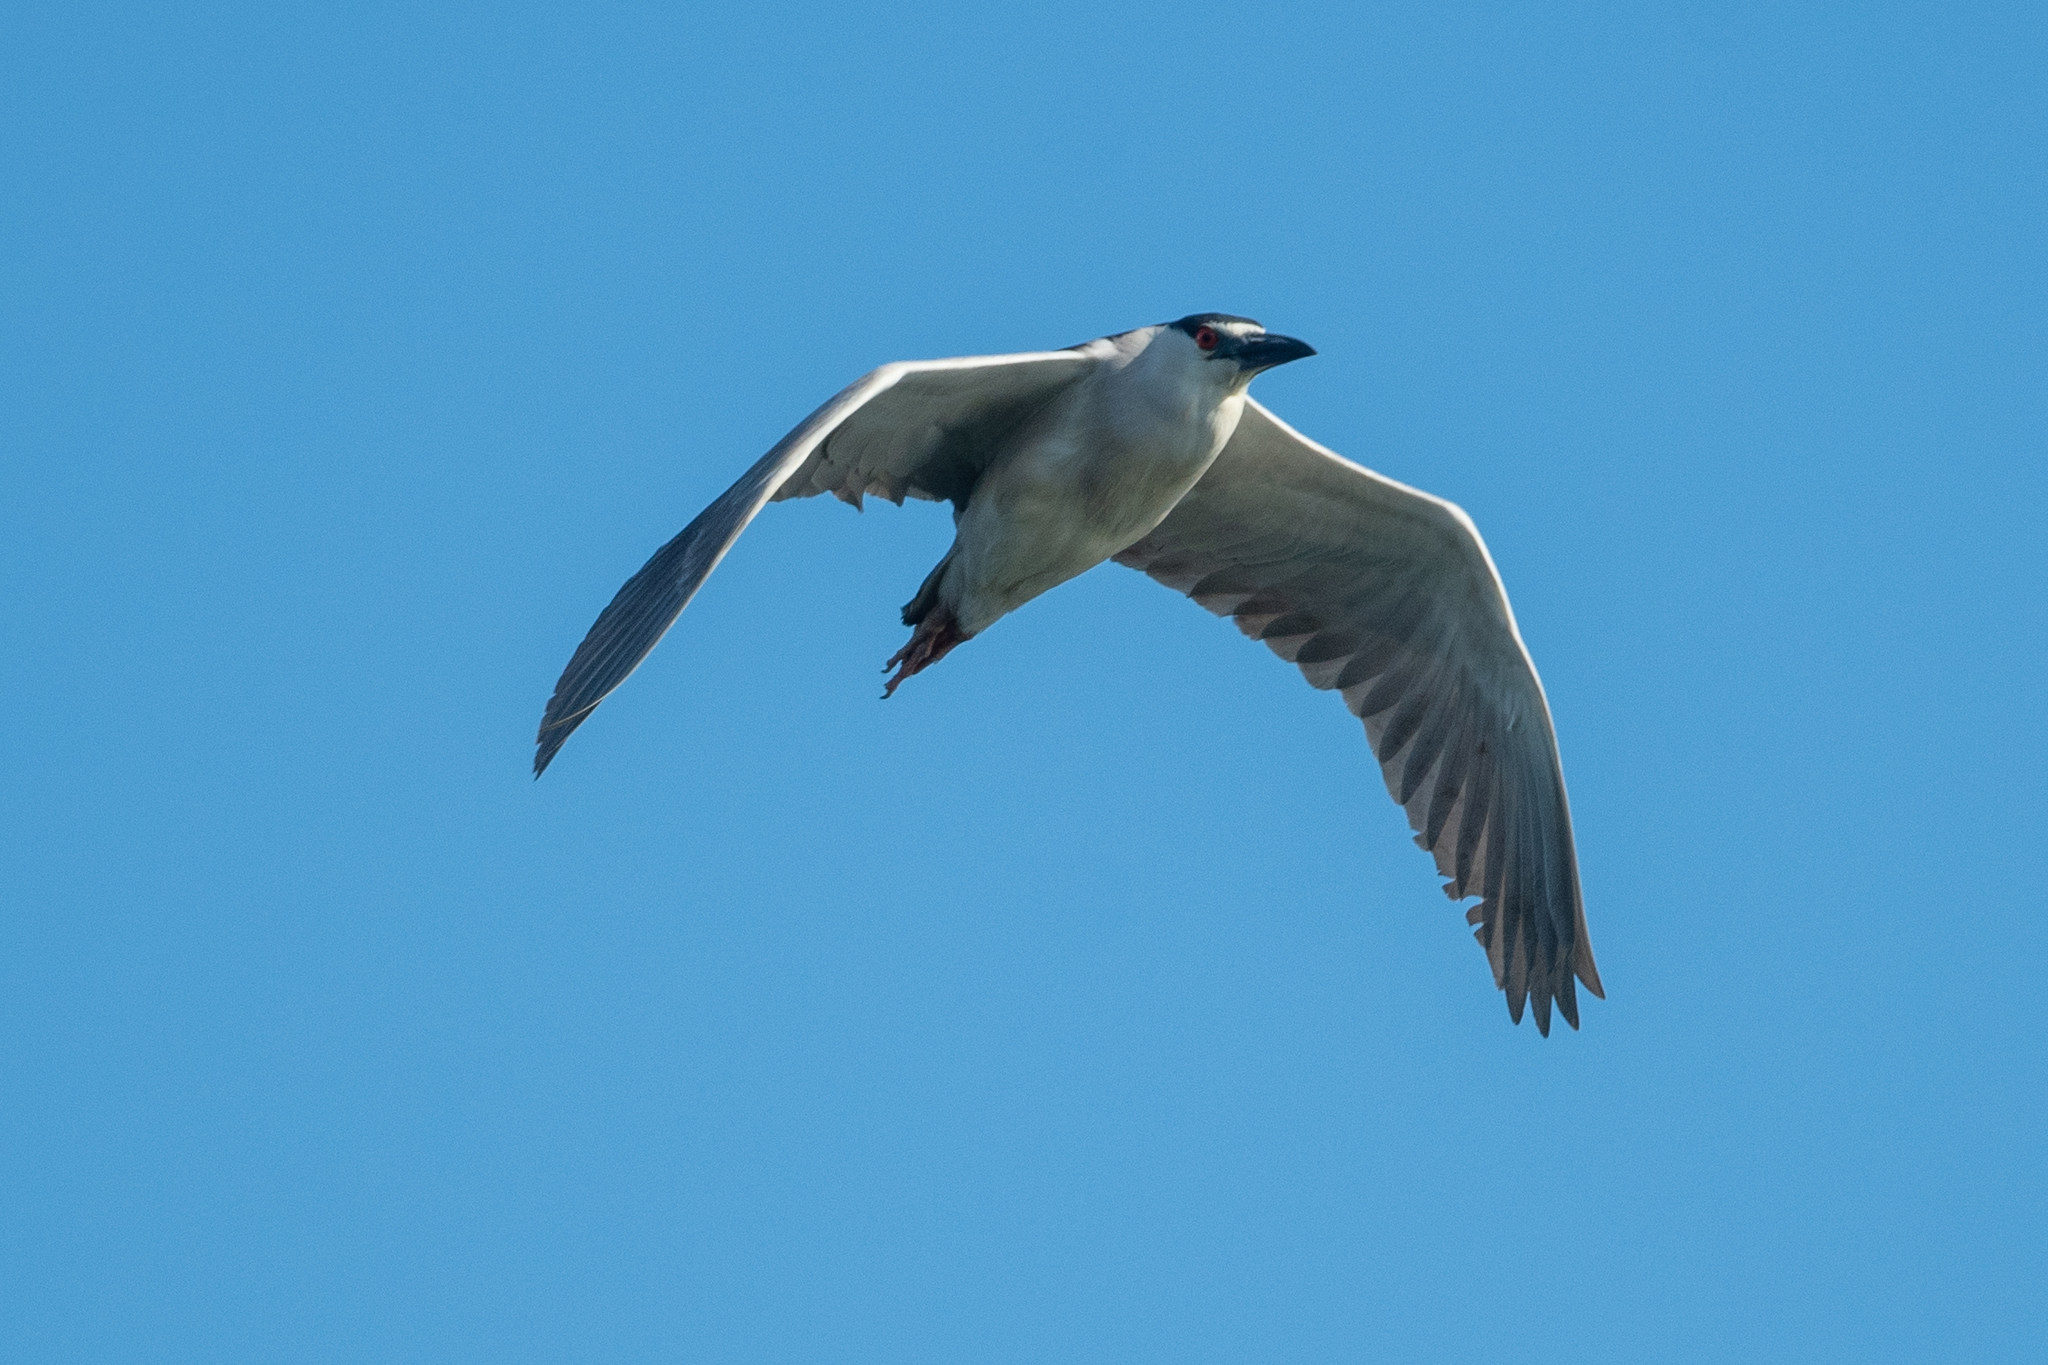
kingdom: Animalia
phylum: Chordata
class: Aves
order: Pelecaniformes
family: Ardeidae
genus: Nycticorax
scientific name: Nycticorax nycticorax
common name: Black-crowned night heron
